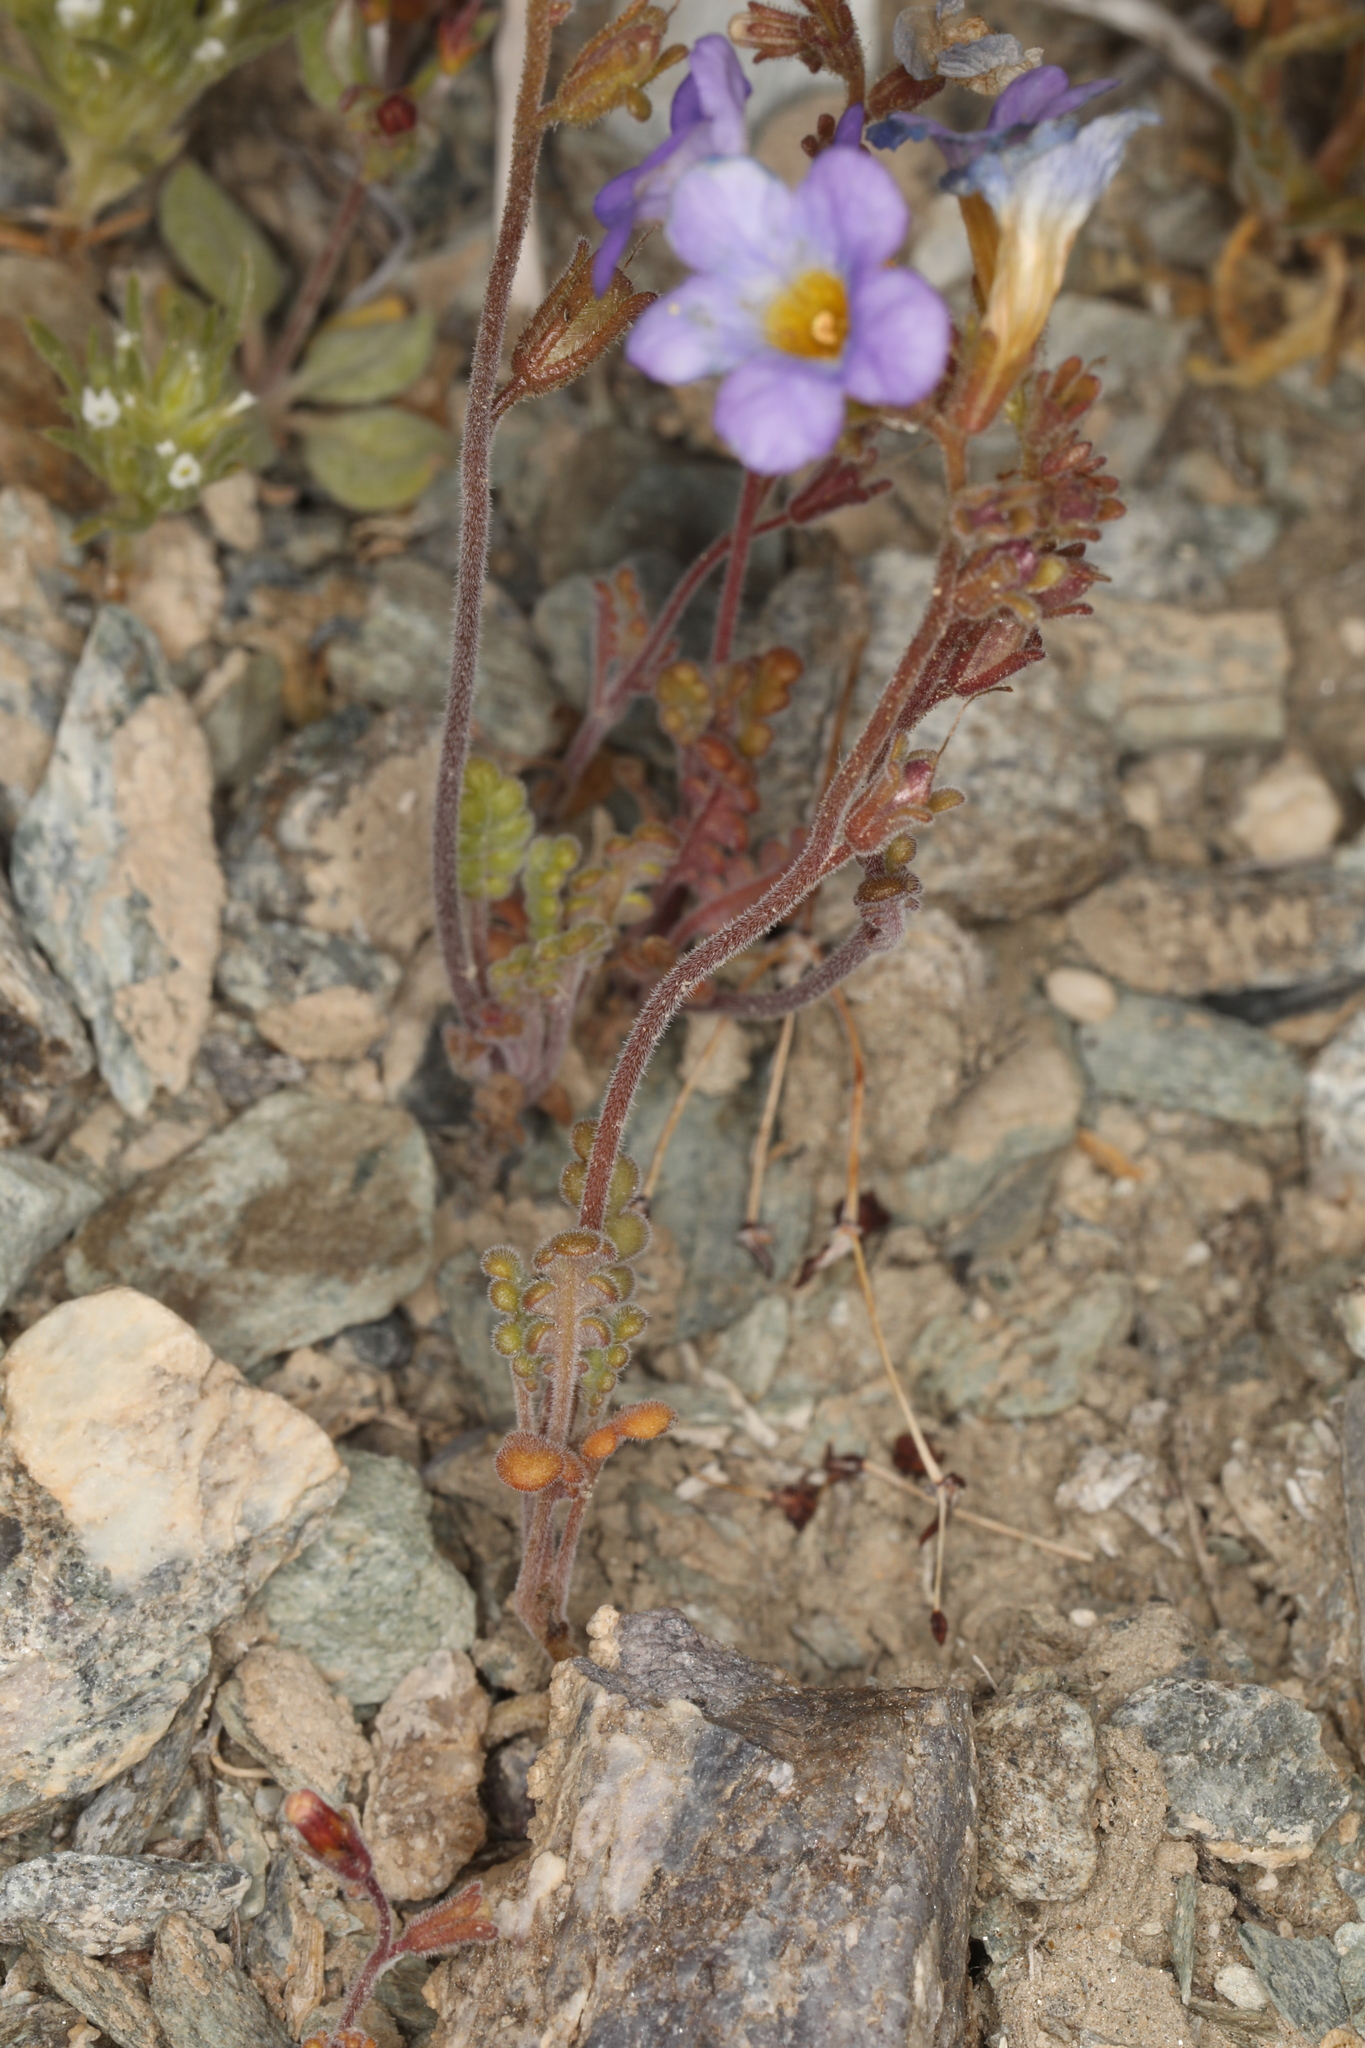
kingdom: Plantae
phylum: Tracheophyta
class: Magnoliopsida
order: Boraginales
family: Hydrophyllaceae
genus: Phacelia
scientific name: Phacelia fremontii
